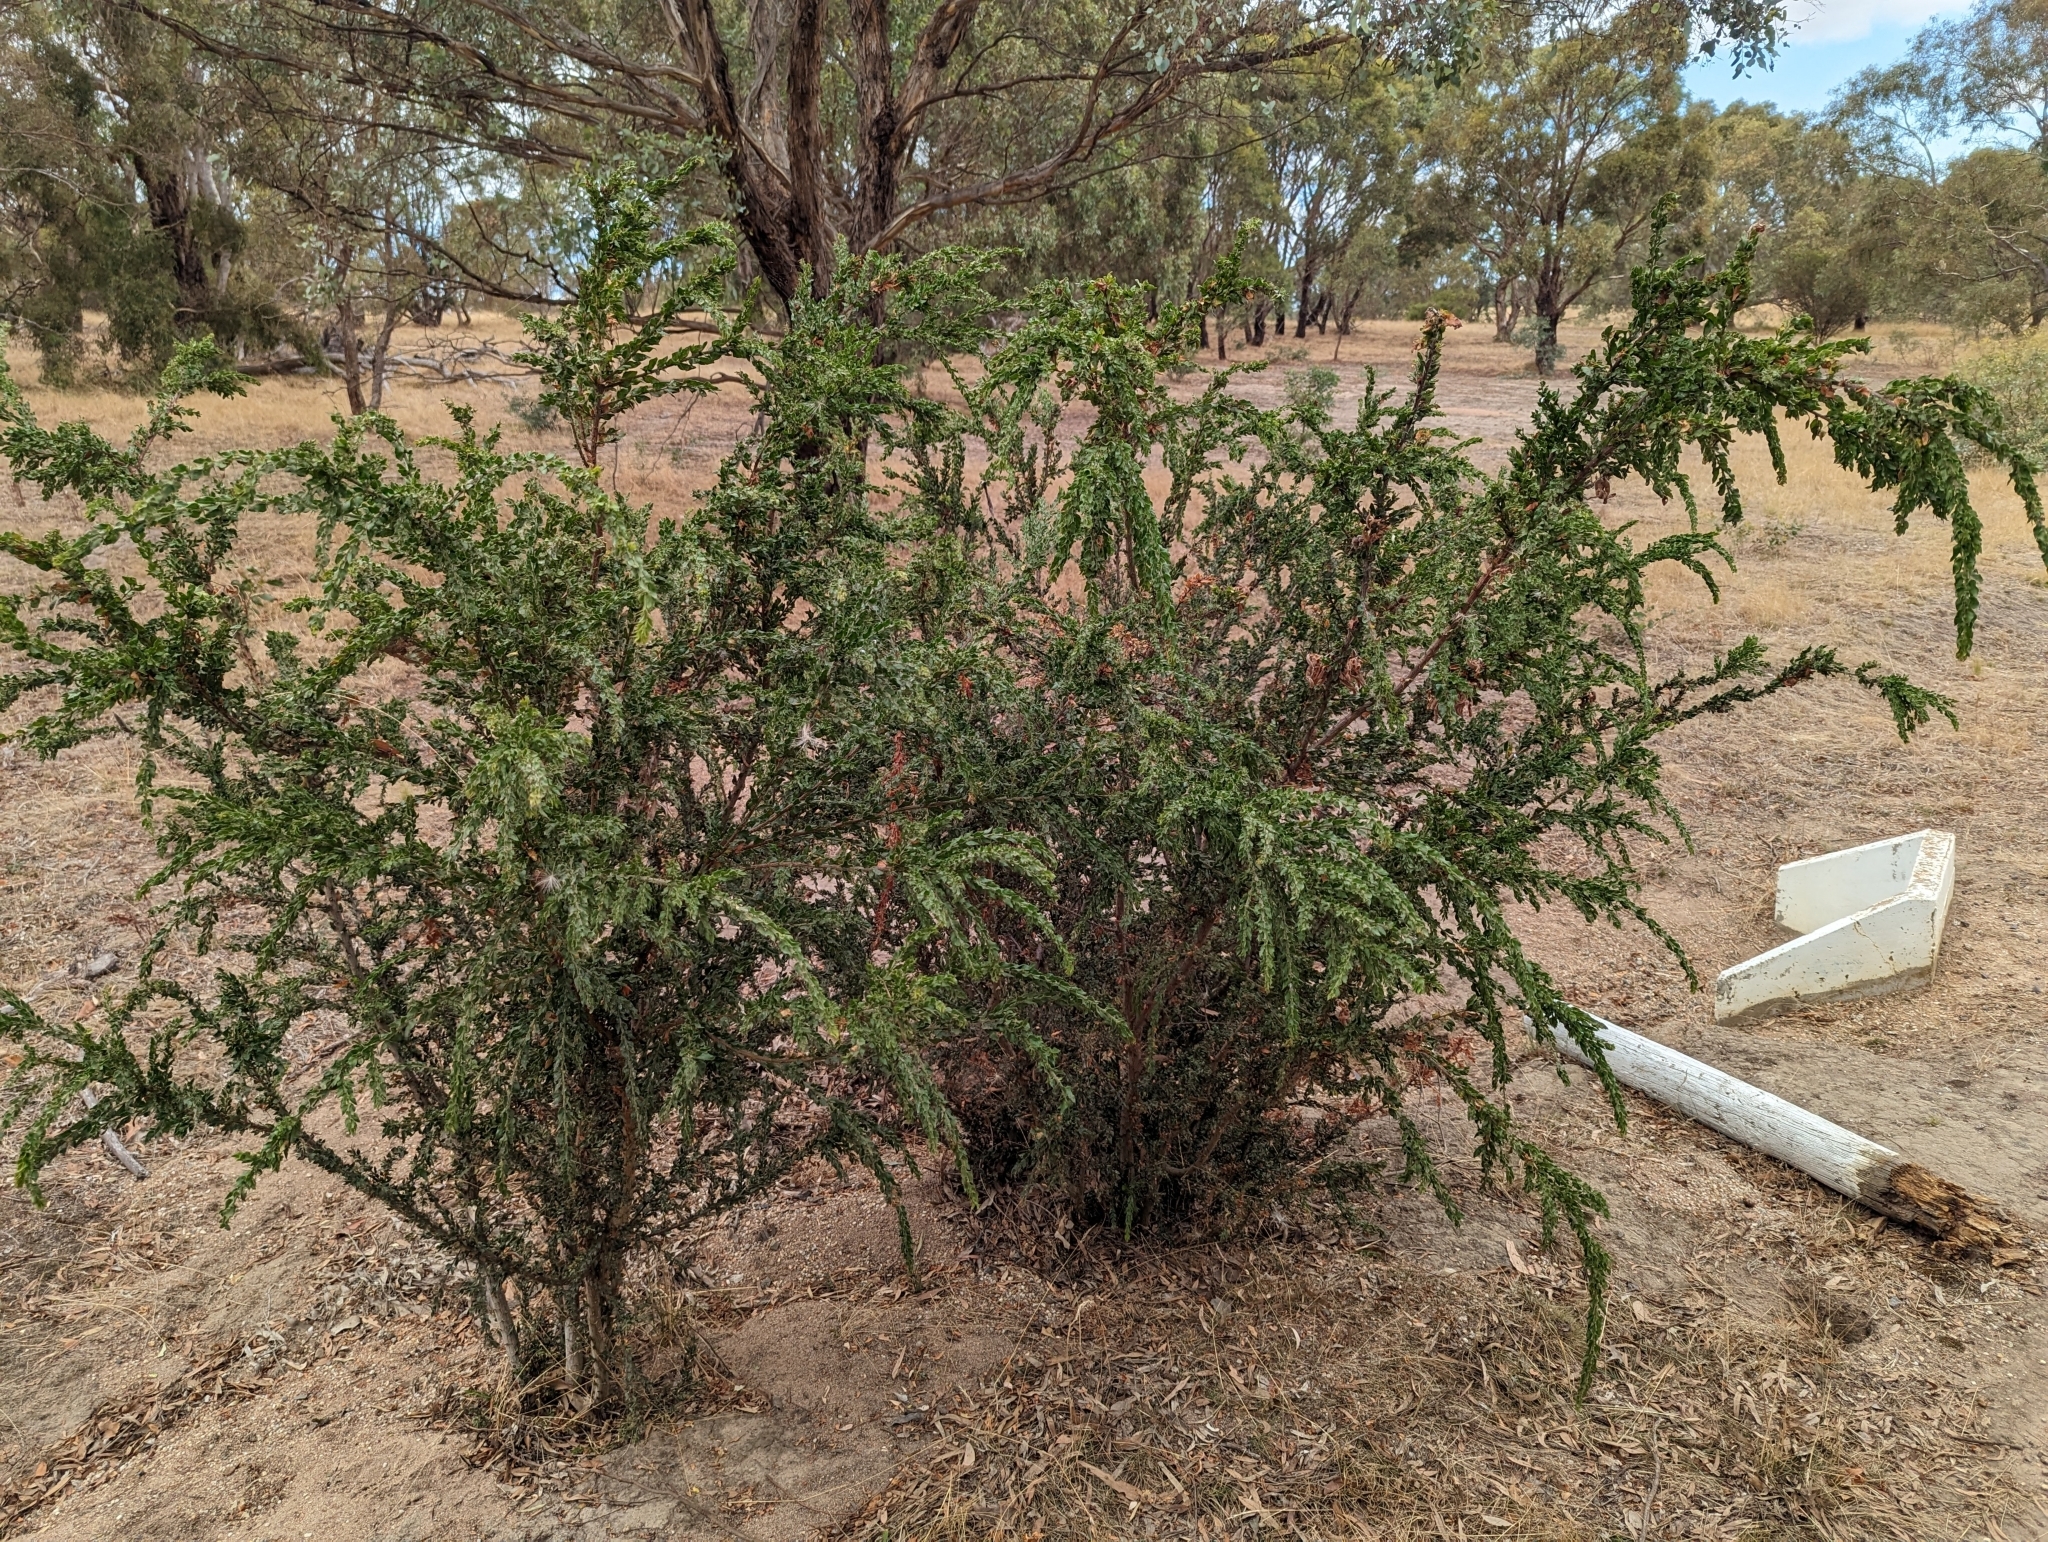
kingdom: Plantae
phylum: Tracheophyta
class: Magnoliopsida
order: Fabales
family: Fabaceae
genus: Acacia
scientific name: Acacia paradoxa
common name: Paradox acacia
